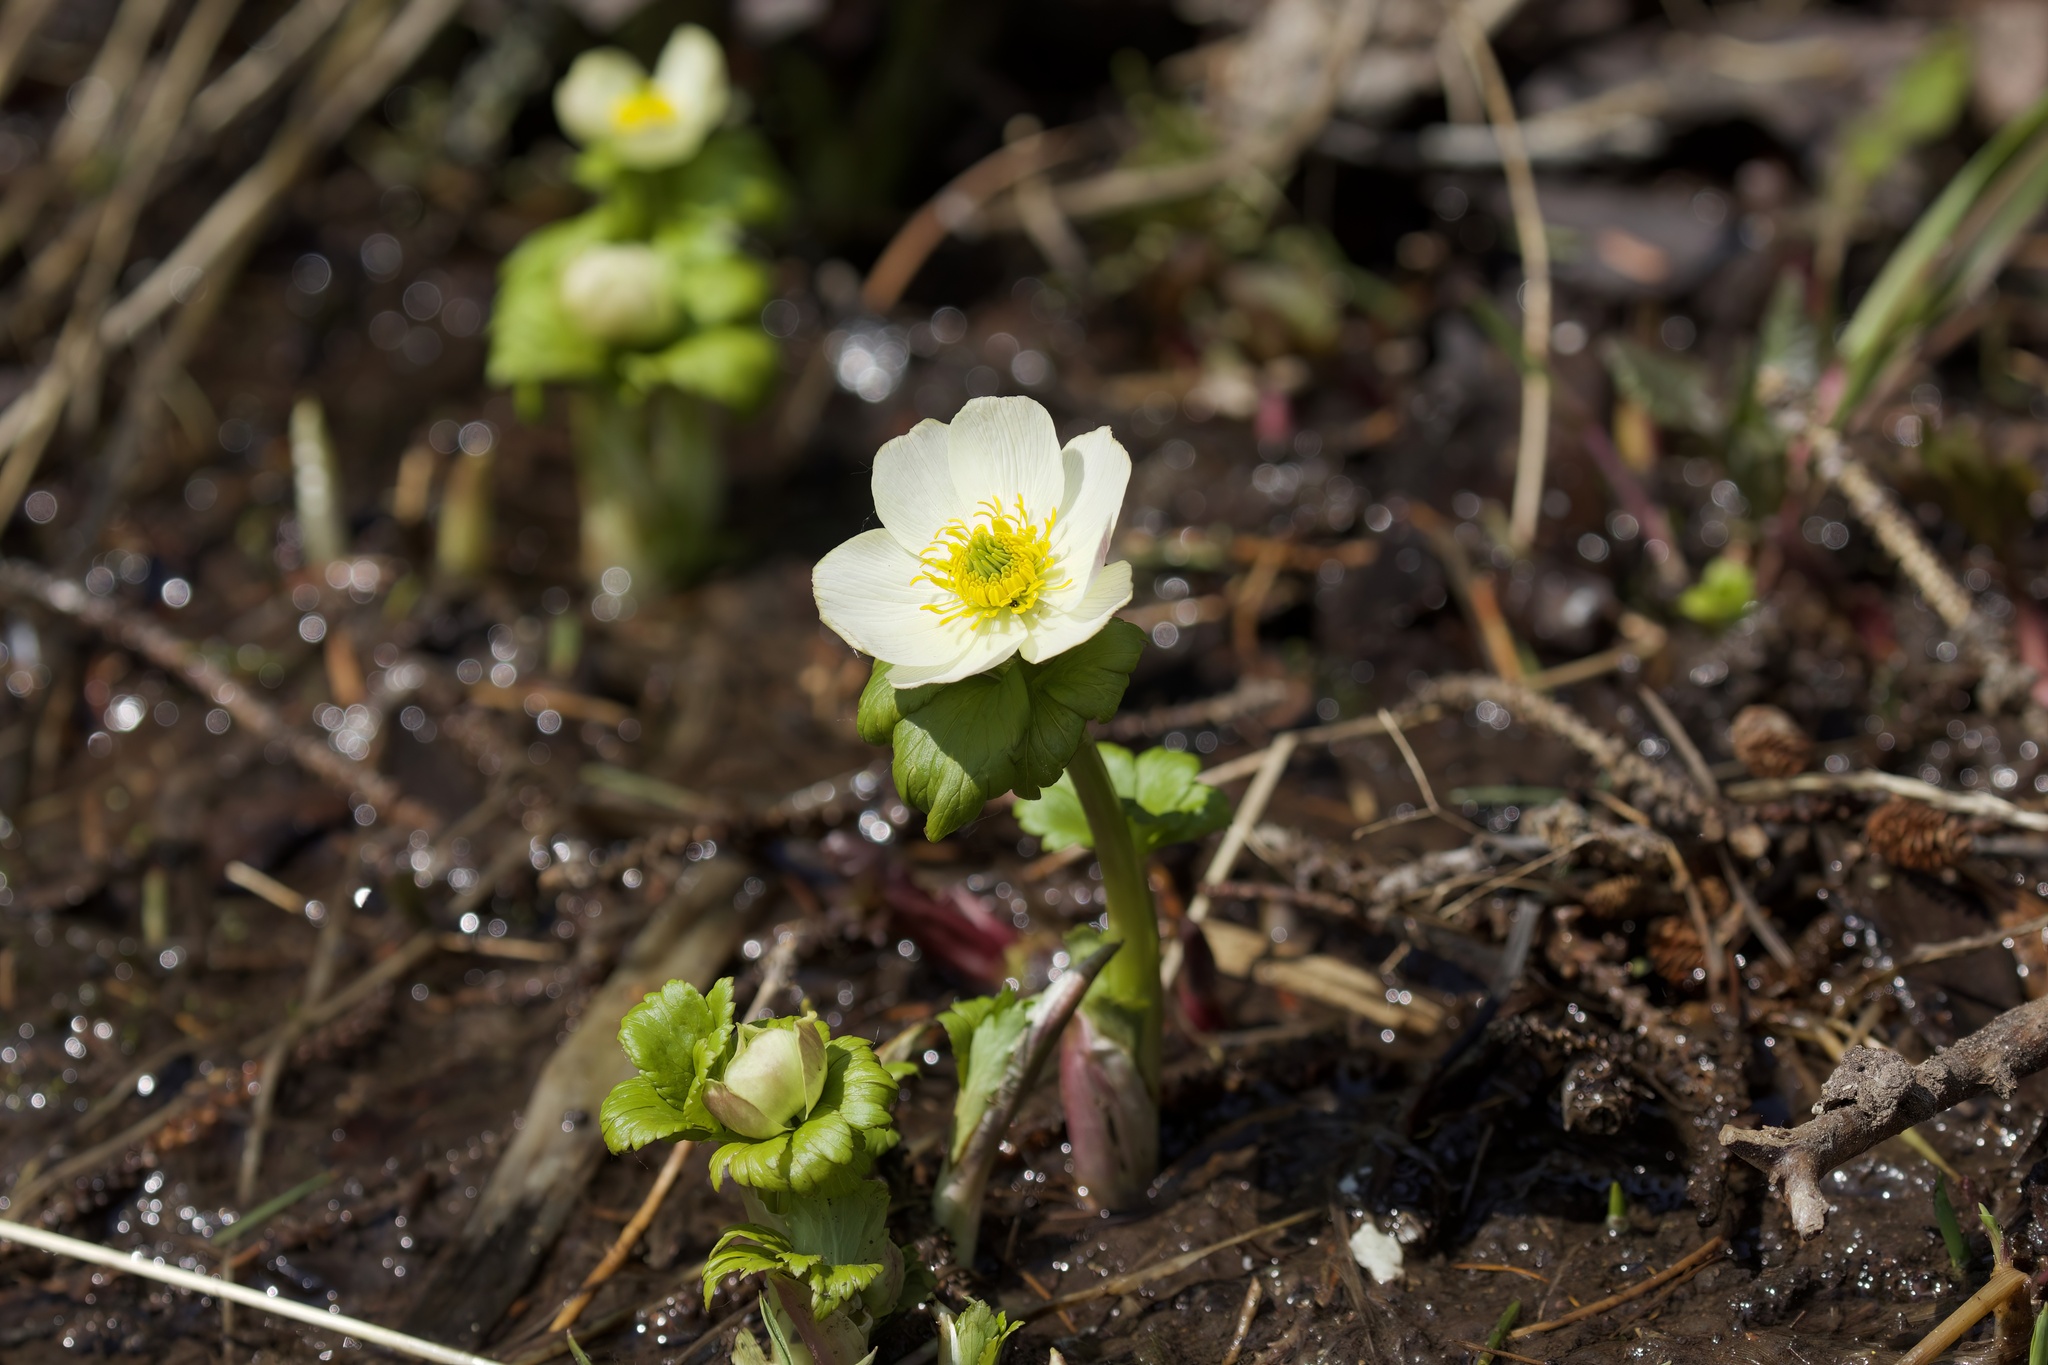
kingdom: Plantae
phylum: Tracheophyta
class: Magnoliopsida
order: Ranunculales
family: Ranunculaceae
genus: Trollius
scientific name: Trollius laxus
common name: American globeflower
